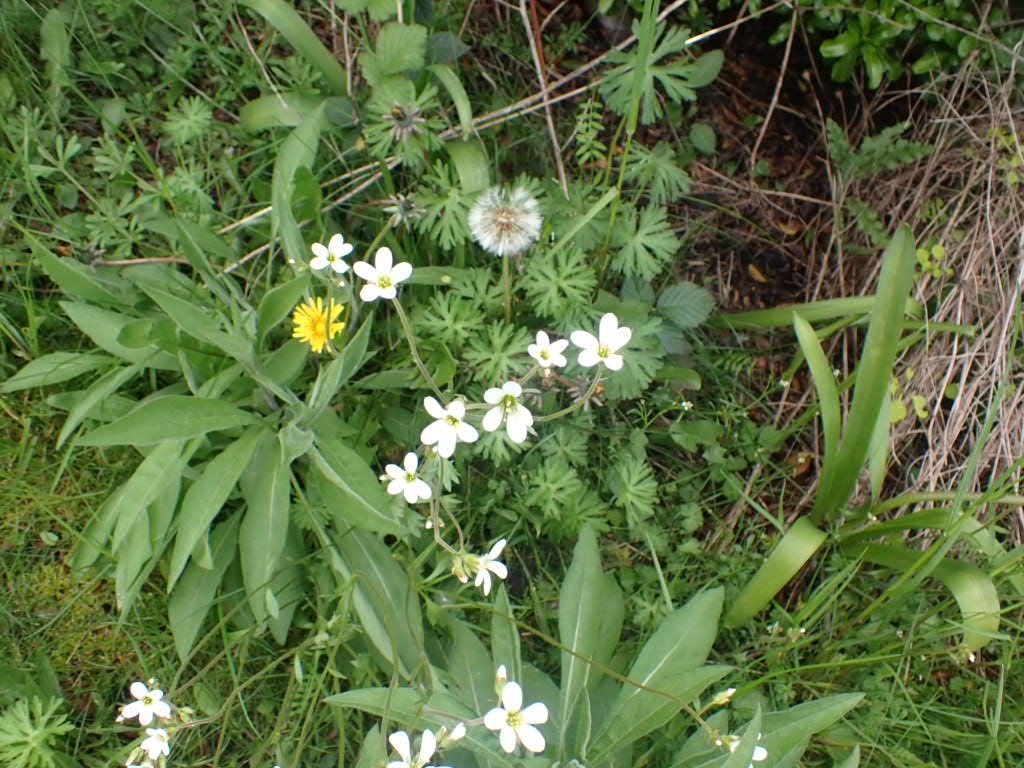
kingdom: Plantae
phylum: Tracheophyta
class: Magnoliopsida
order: Saxifragales
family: Saxifragaceae
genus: Saxifraga
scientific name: Saxifraga granulata
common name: Meadow saxifrage
